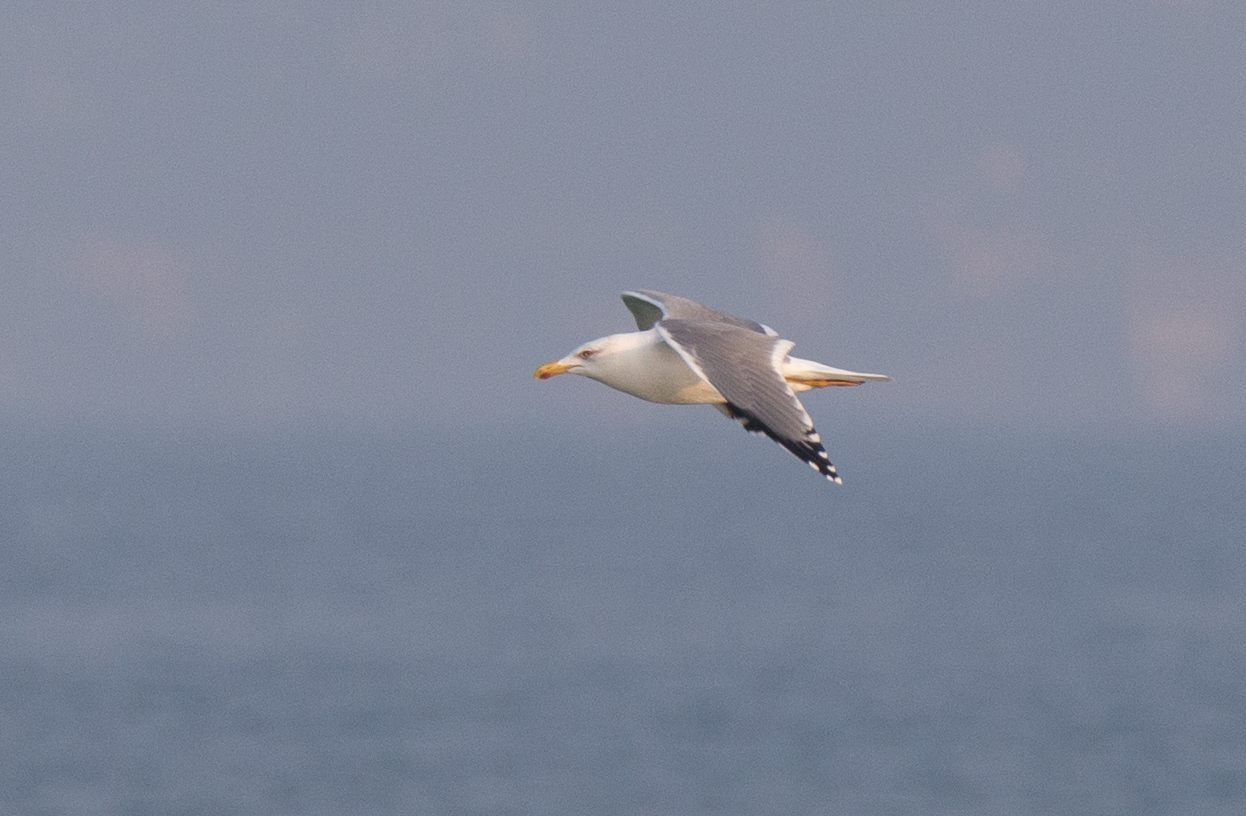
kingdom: Animalia
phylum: Chordata
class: Aves
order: Charadriiformes
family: Laridae
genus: Larus
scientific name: Larus michahellis
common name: Yellow-legged gull
